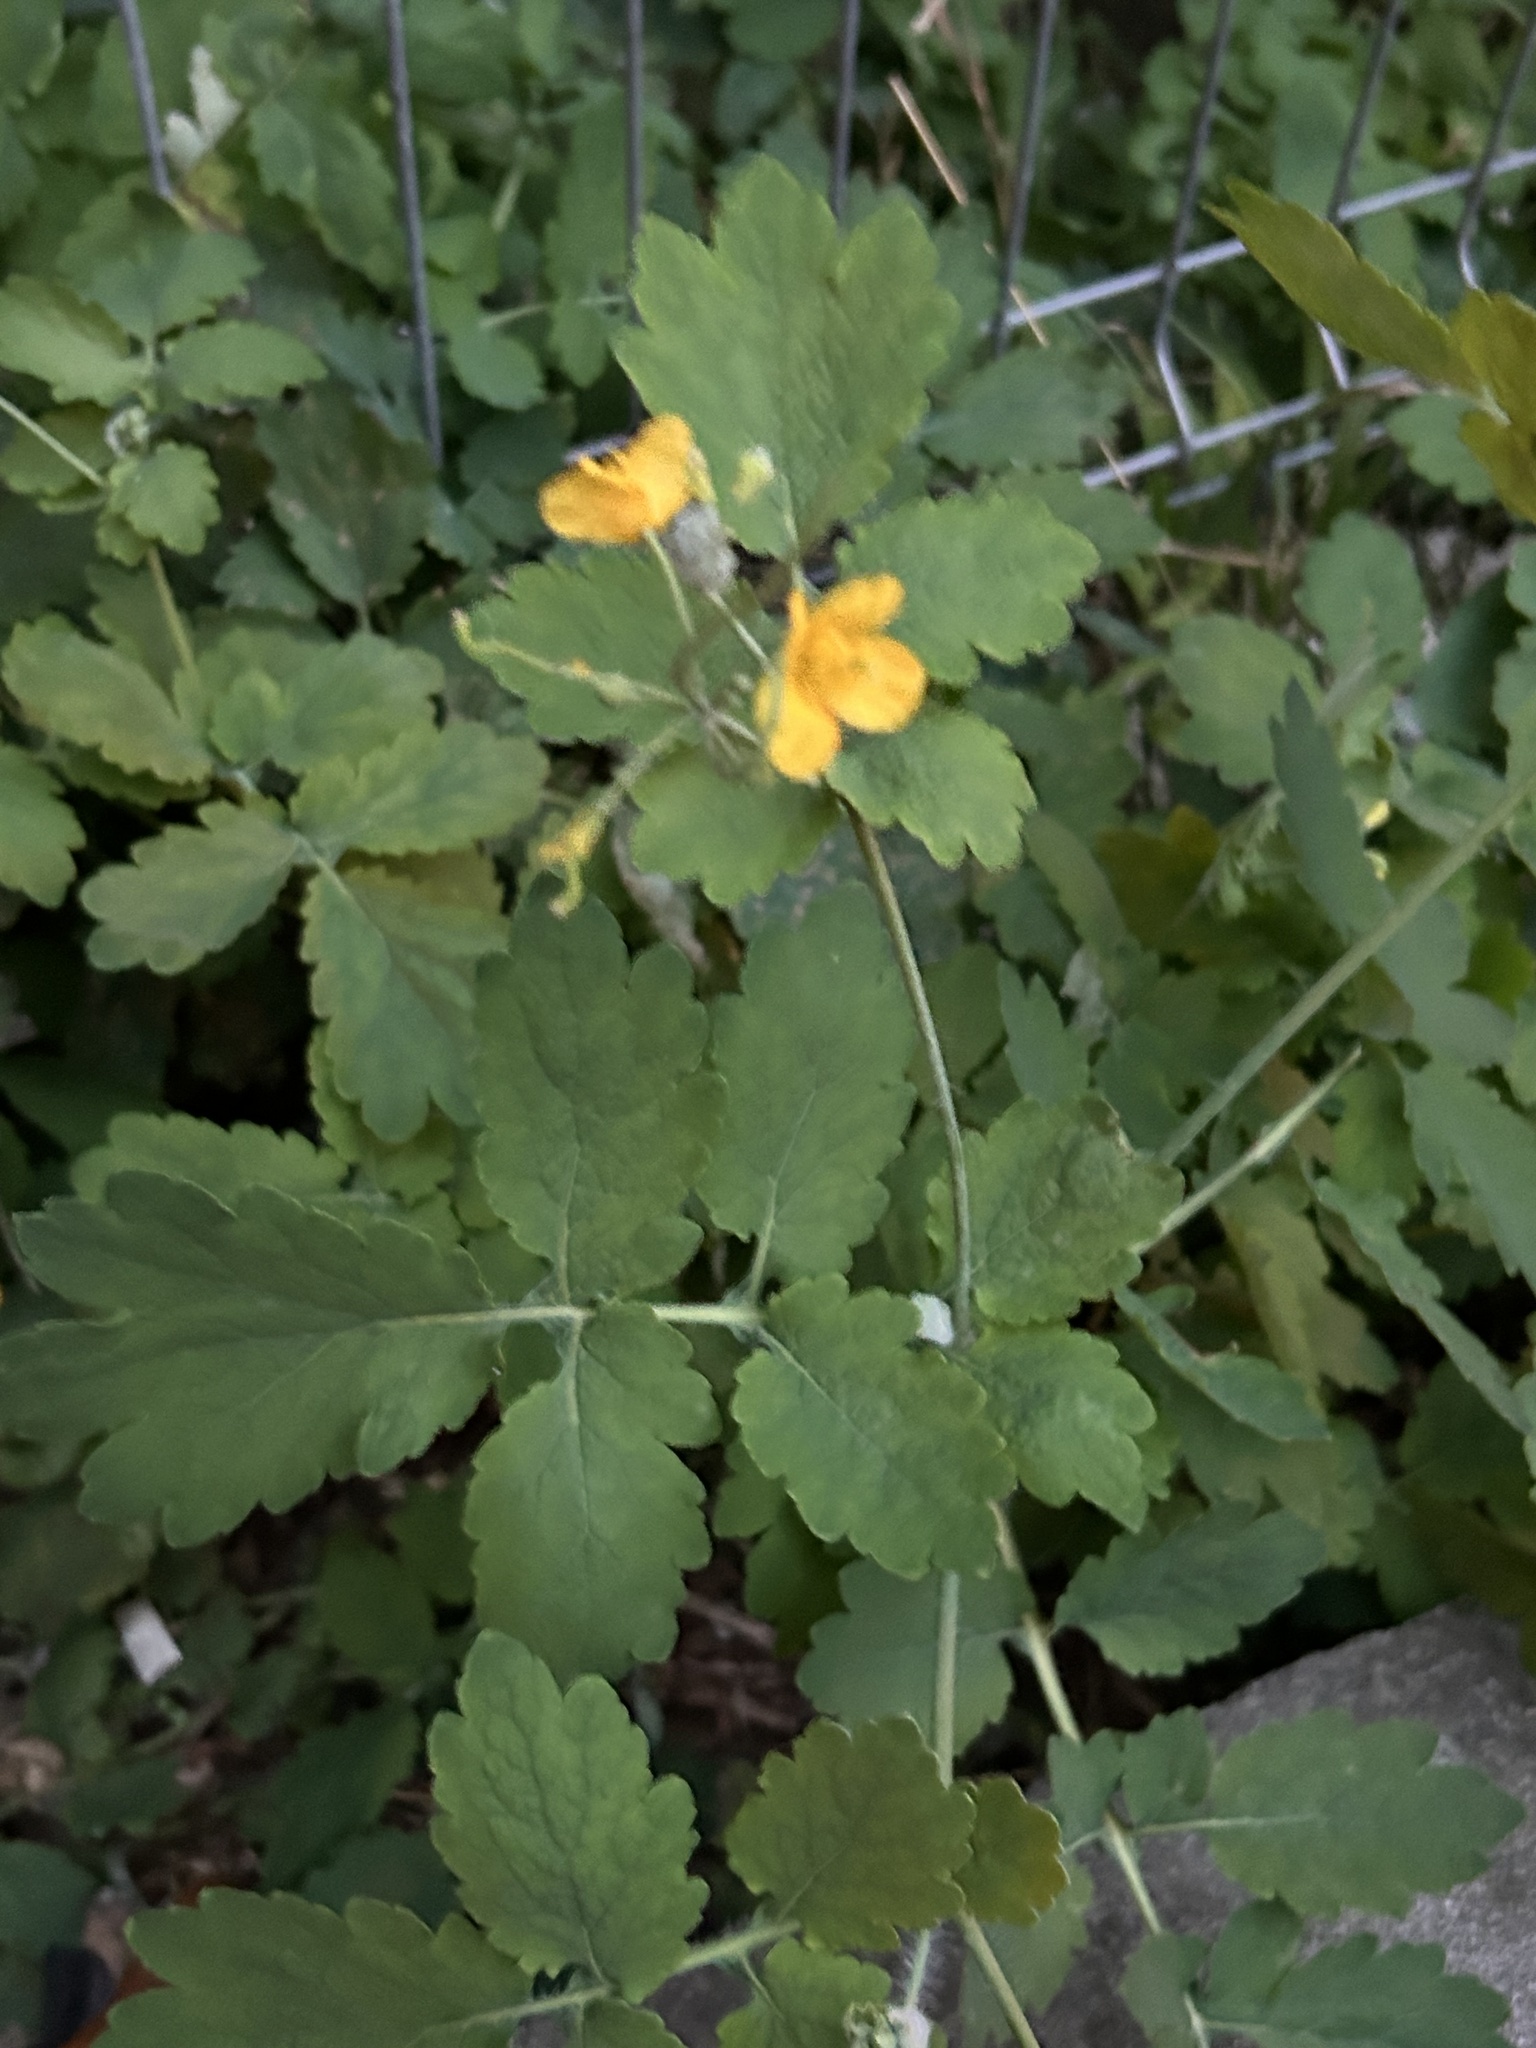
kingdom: Plantae
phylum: Tracheophyta
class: Magnoliopsida
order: Ranunculales
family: Papaveraceae
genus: Chelidonium
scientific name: Chelidonium majus
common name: Greater celandine
